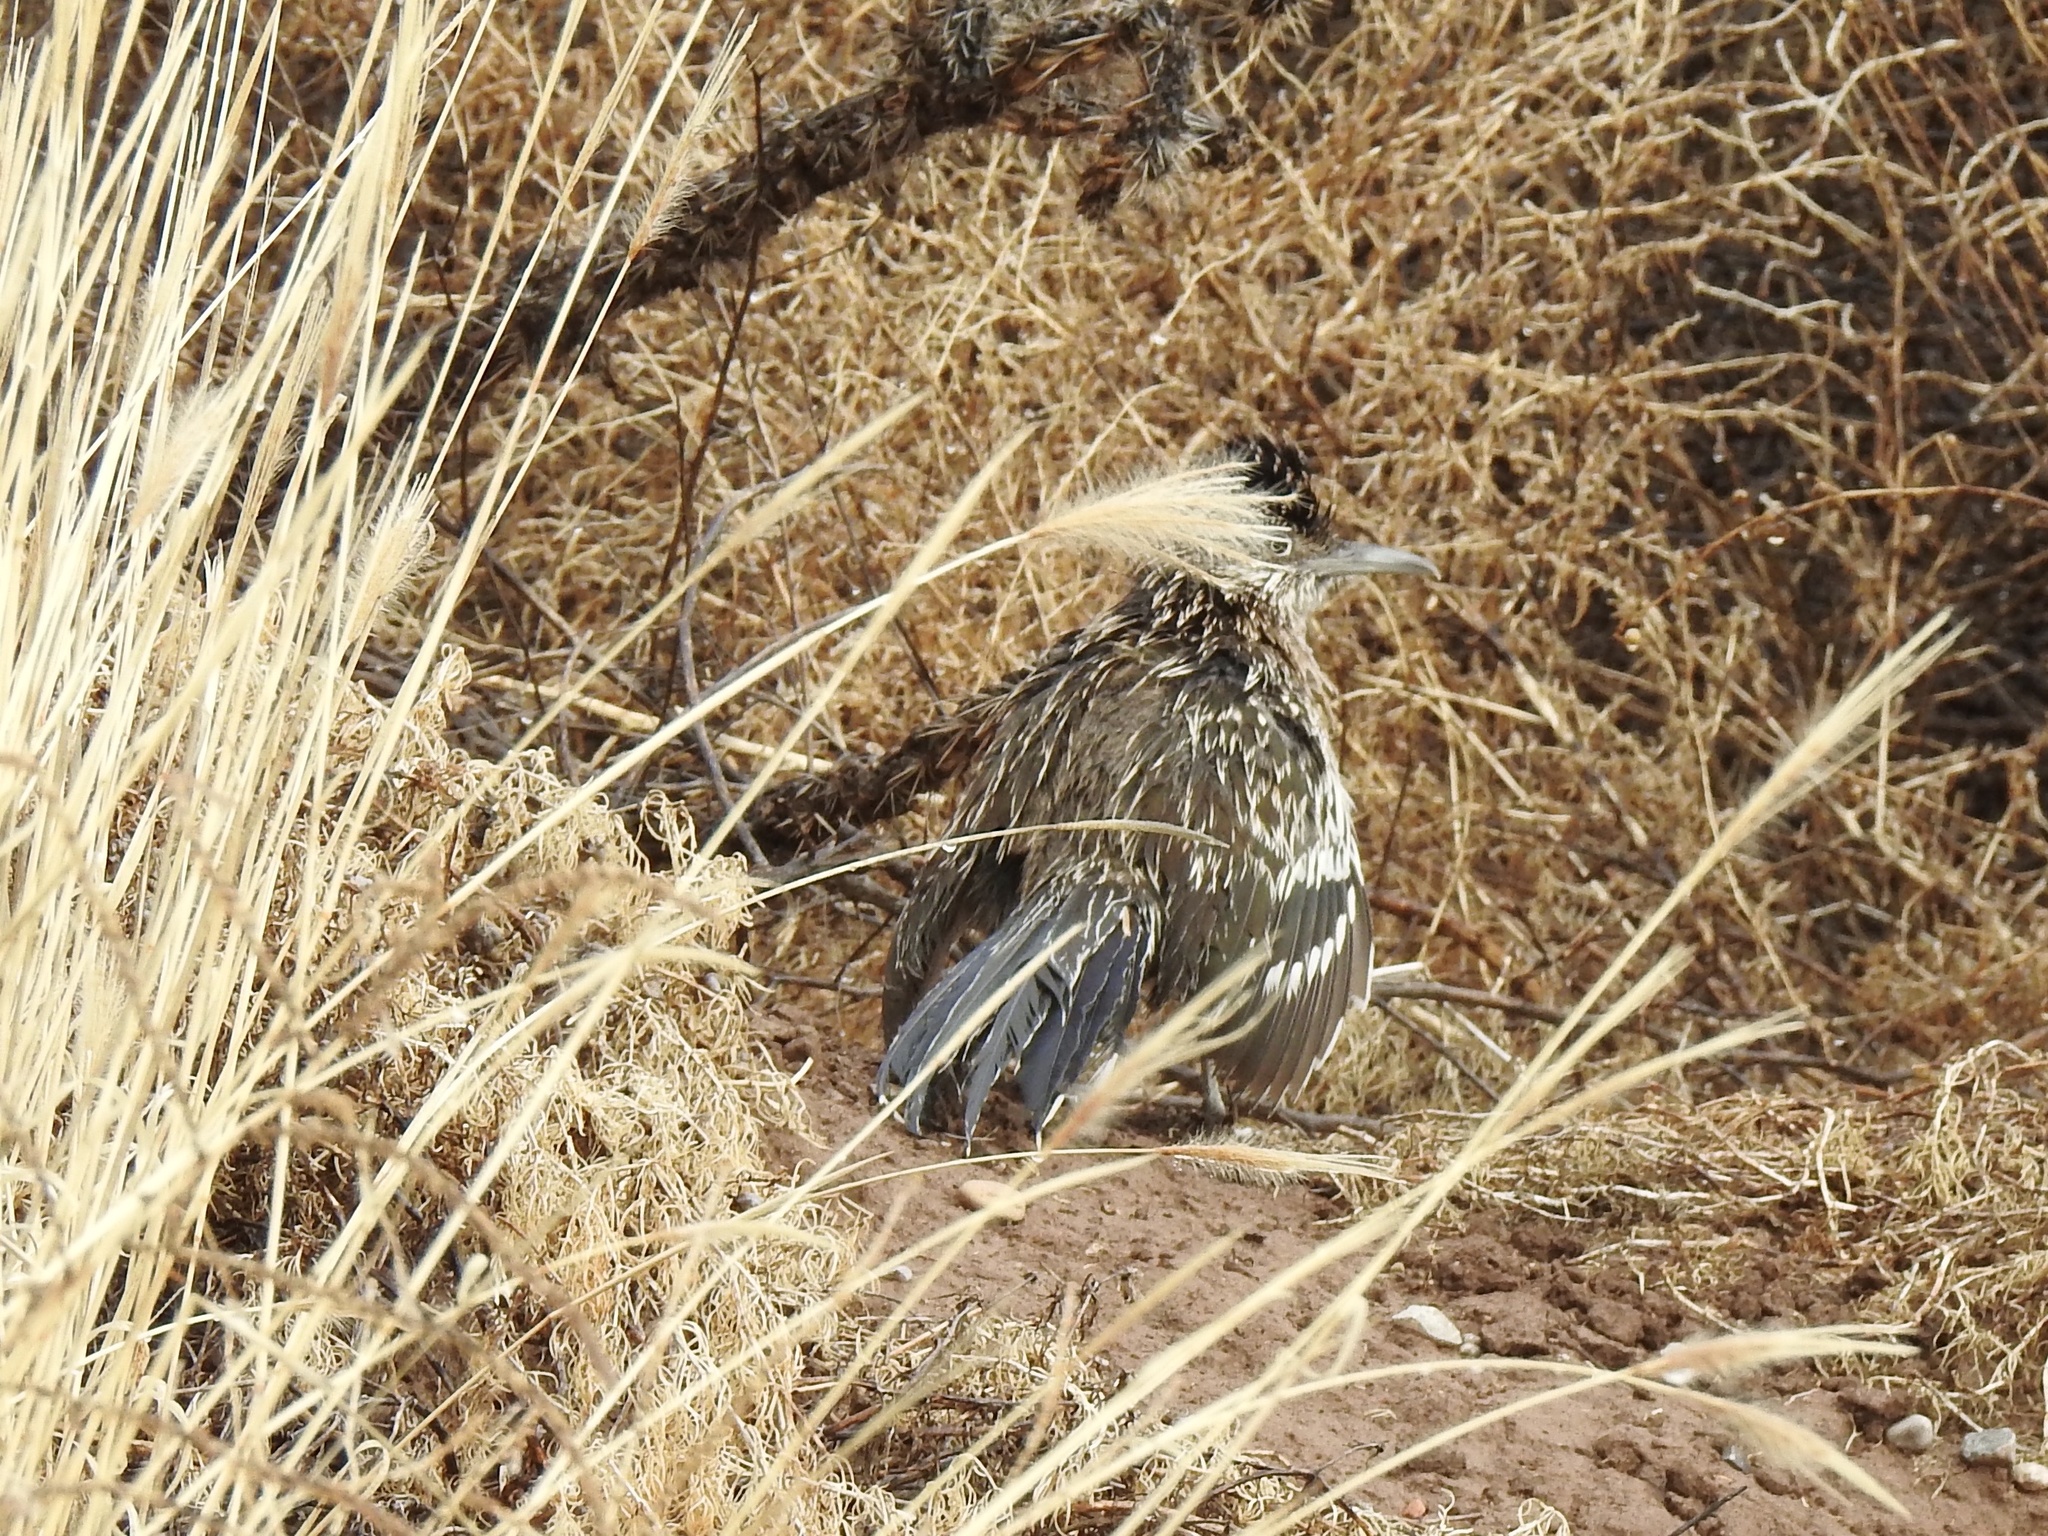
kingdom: Animalia
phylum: Chordata
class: Aves
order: Cuculiformes
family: Cuculidae
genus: Geococcyx
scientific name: Geococcyx californianus
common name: Greater roadrunner
